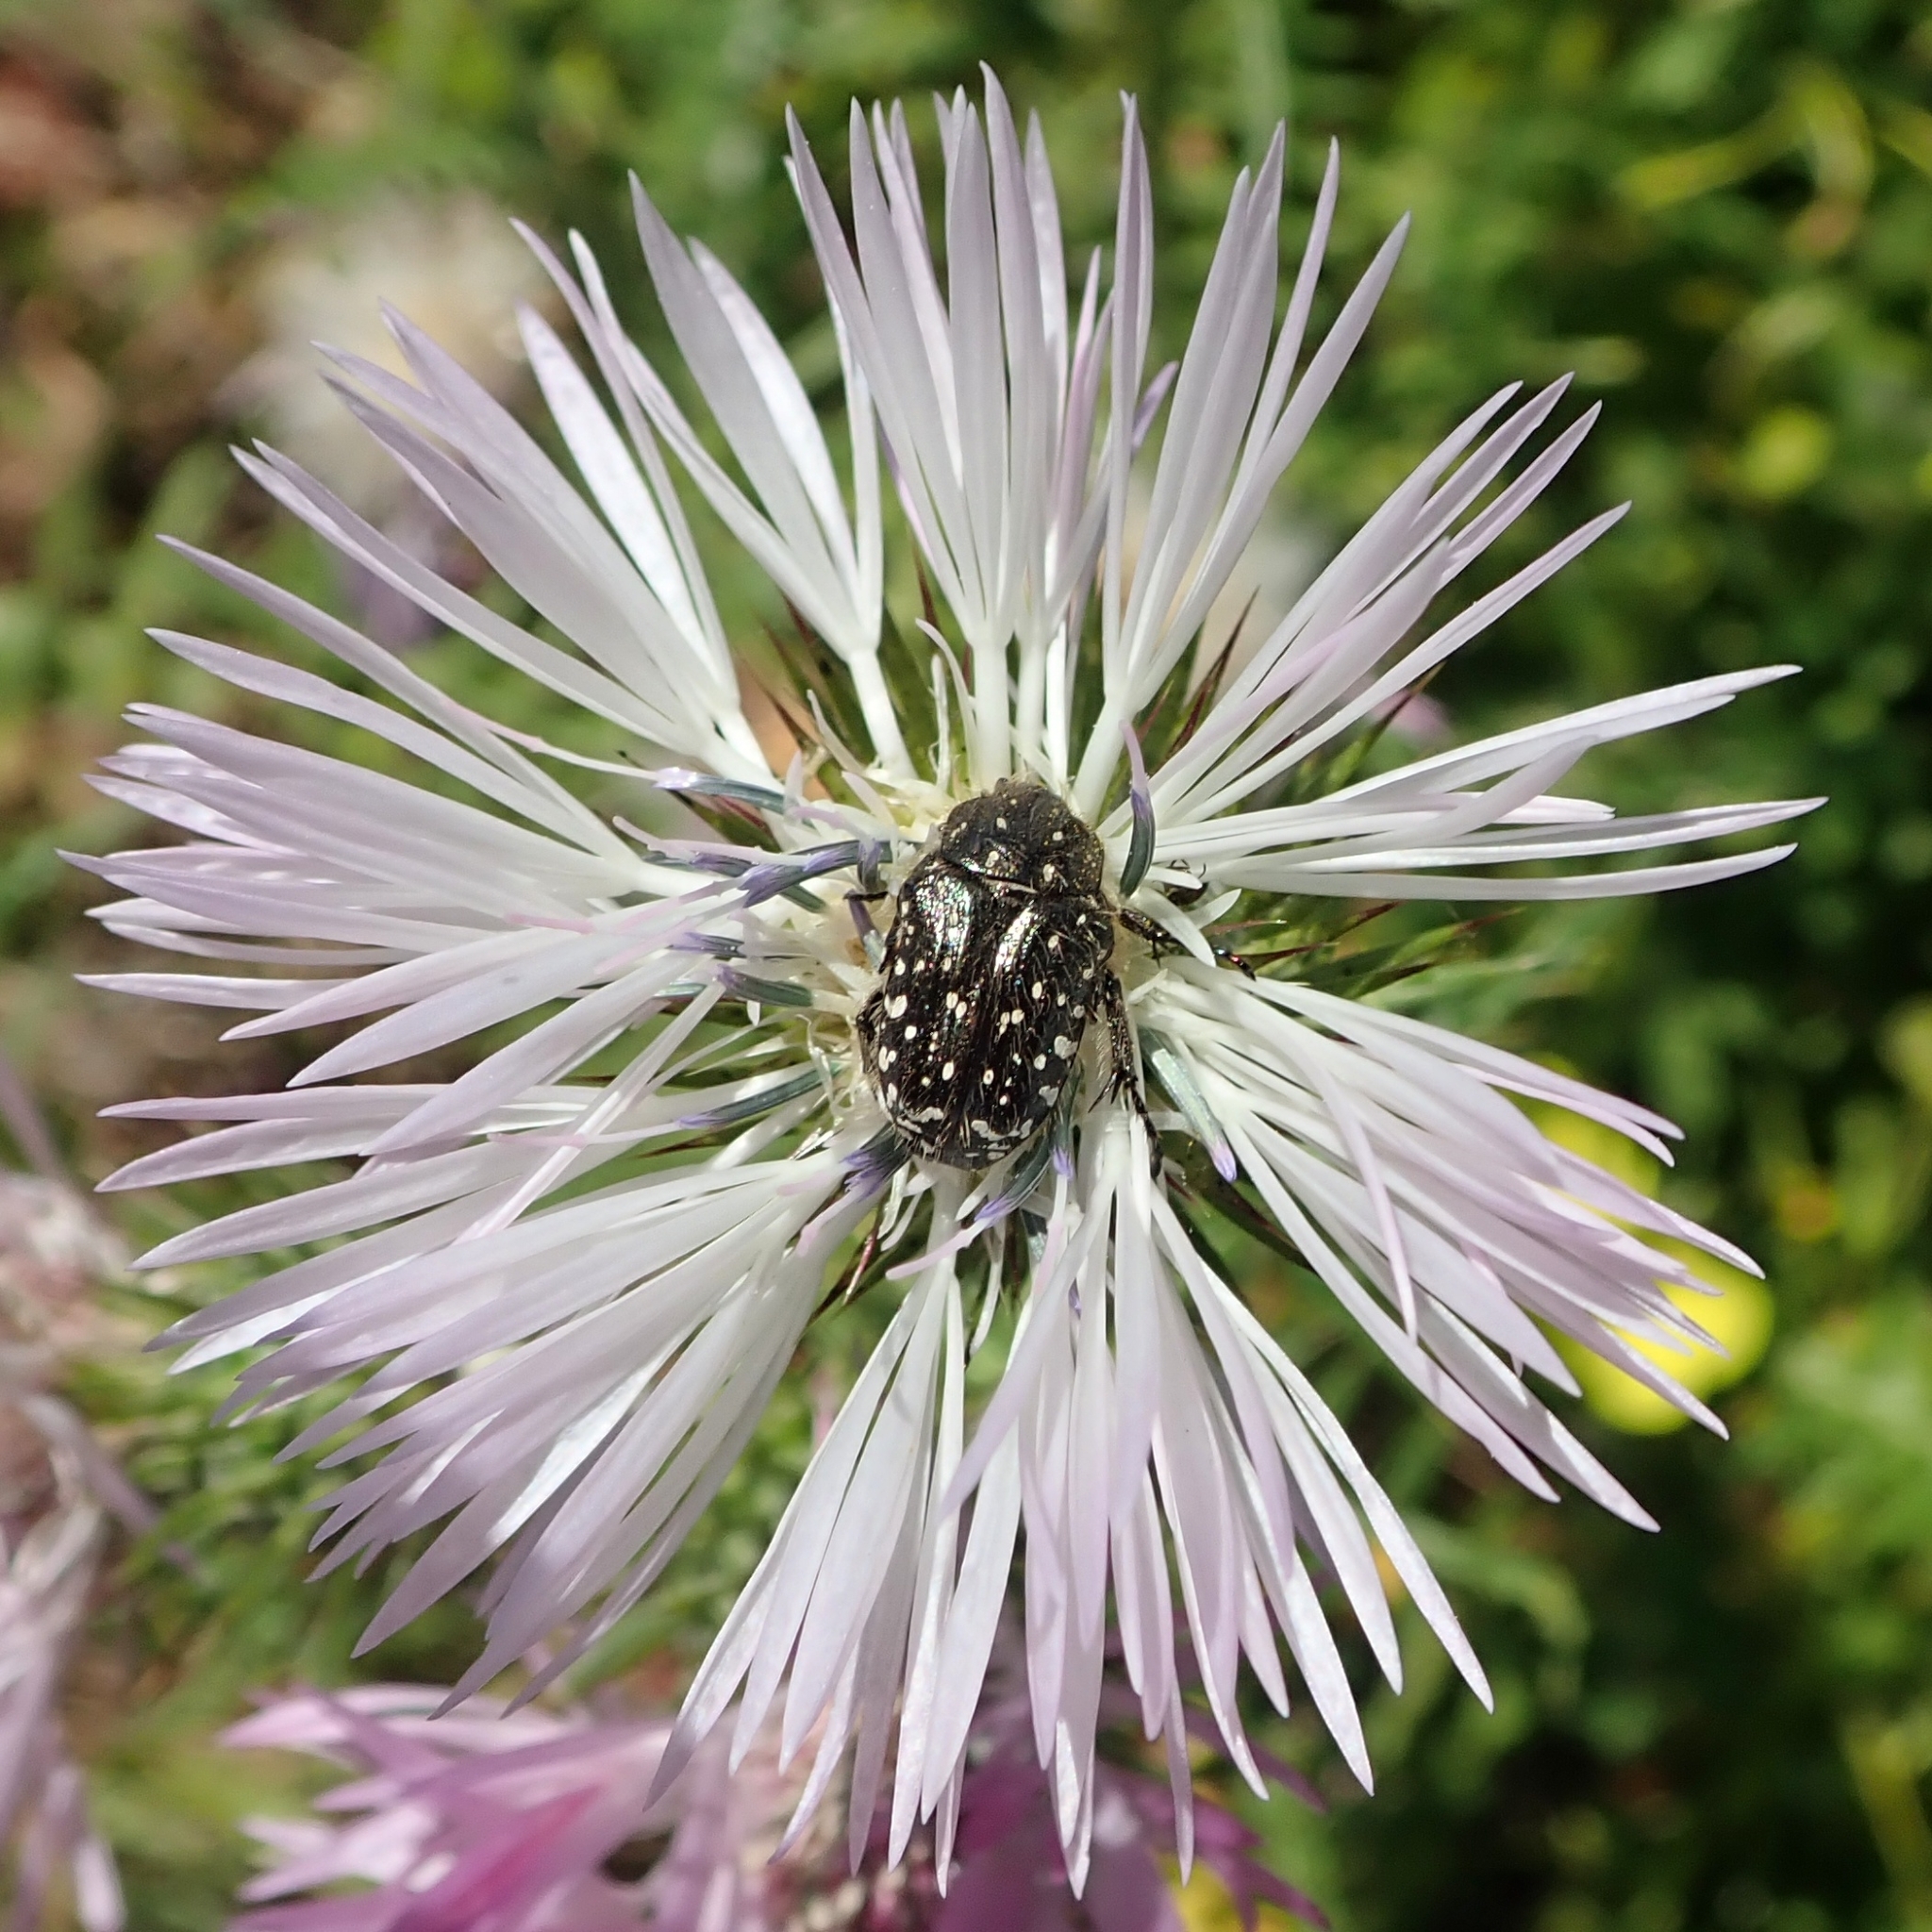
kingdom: Animalia
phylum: Arthropoda
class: Insecta
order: Coleoptera
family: Scarabaeidae
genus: Oxythyrea
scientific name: Oxythyrea funesta
